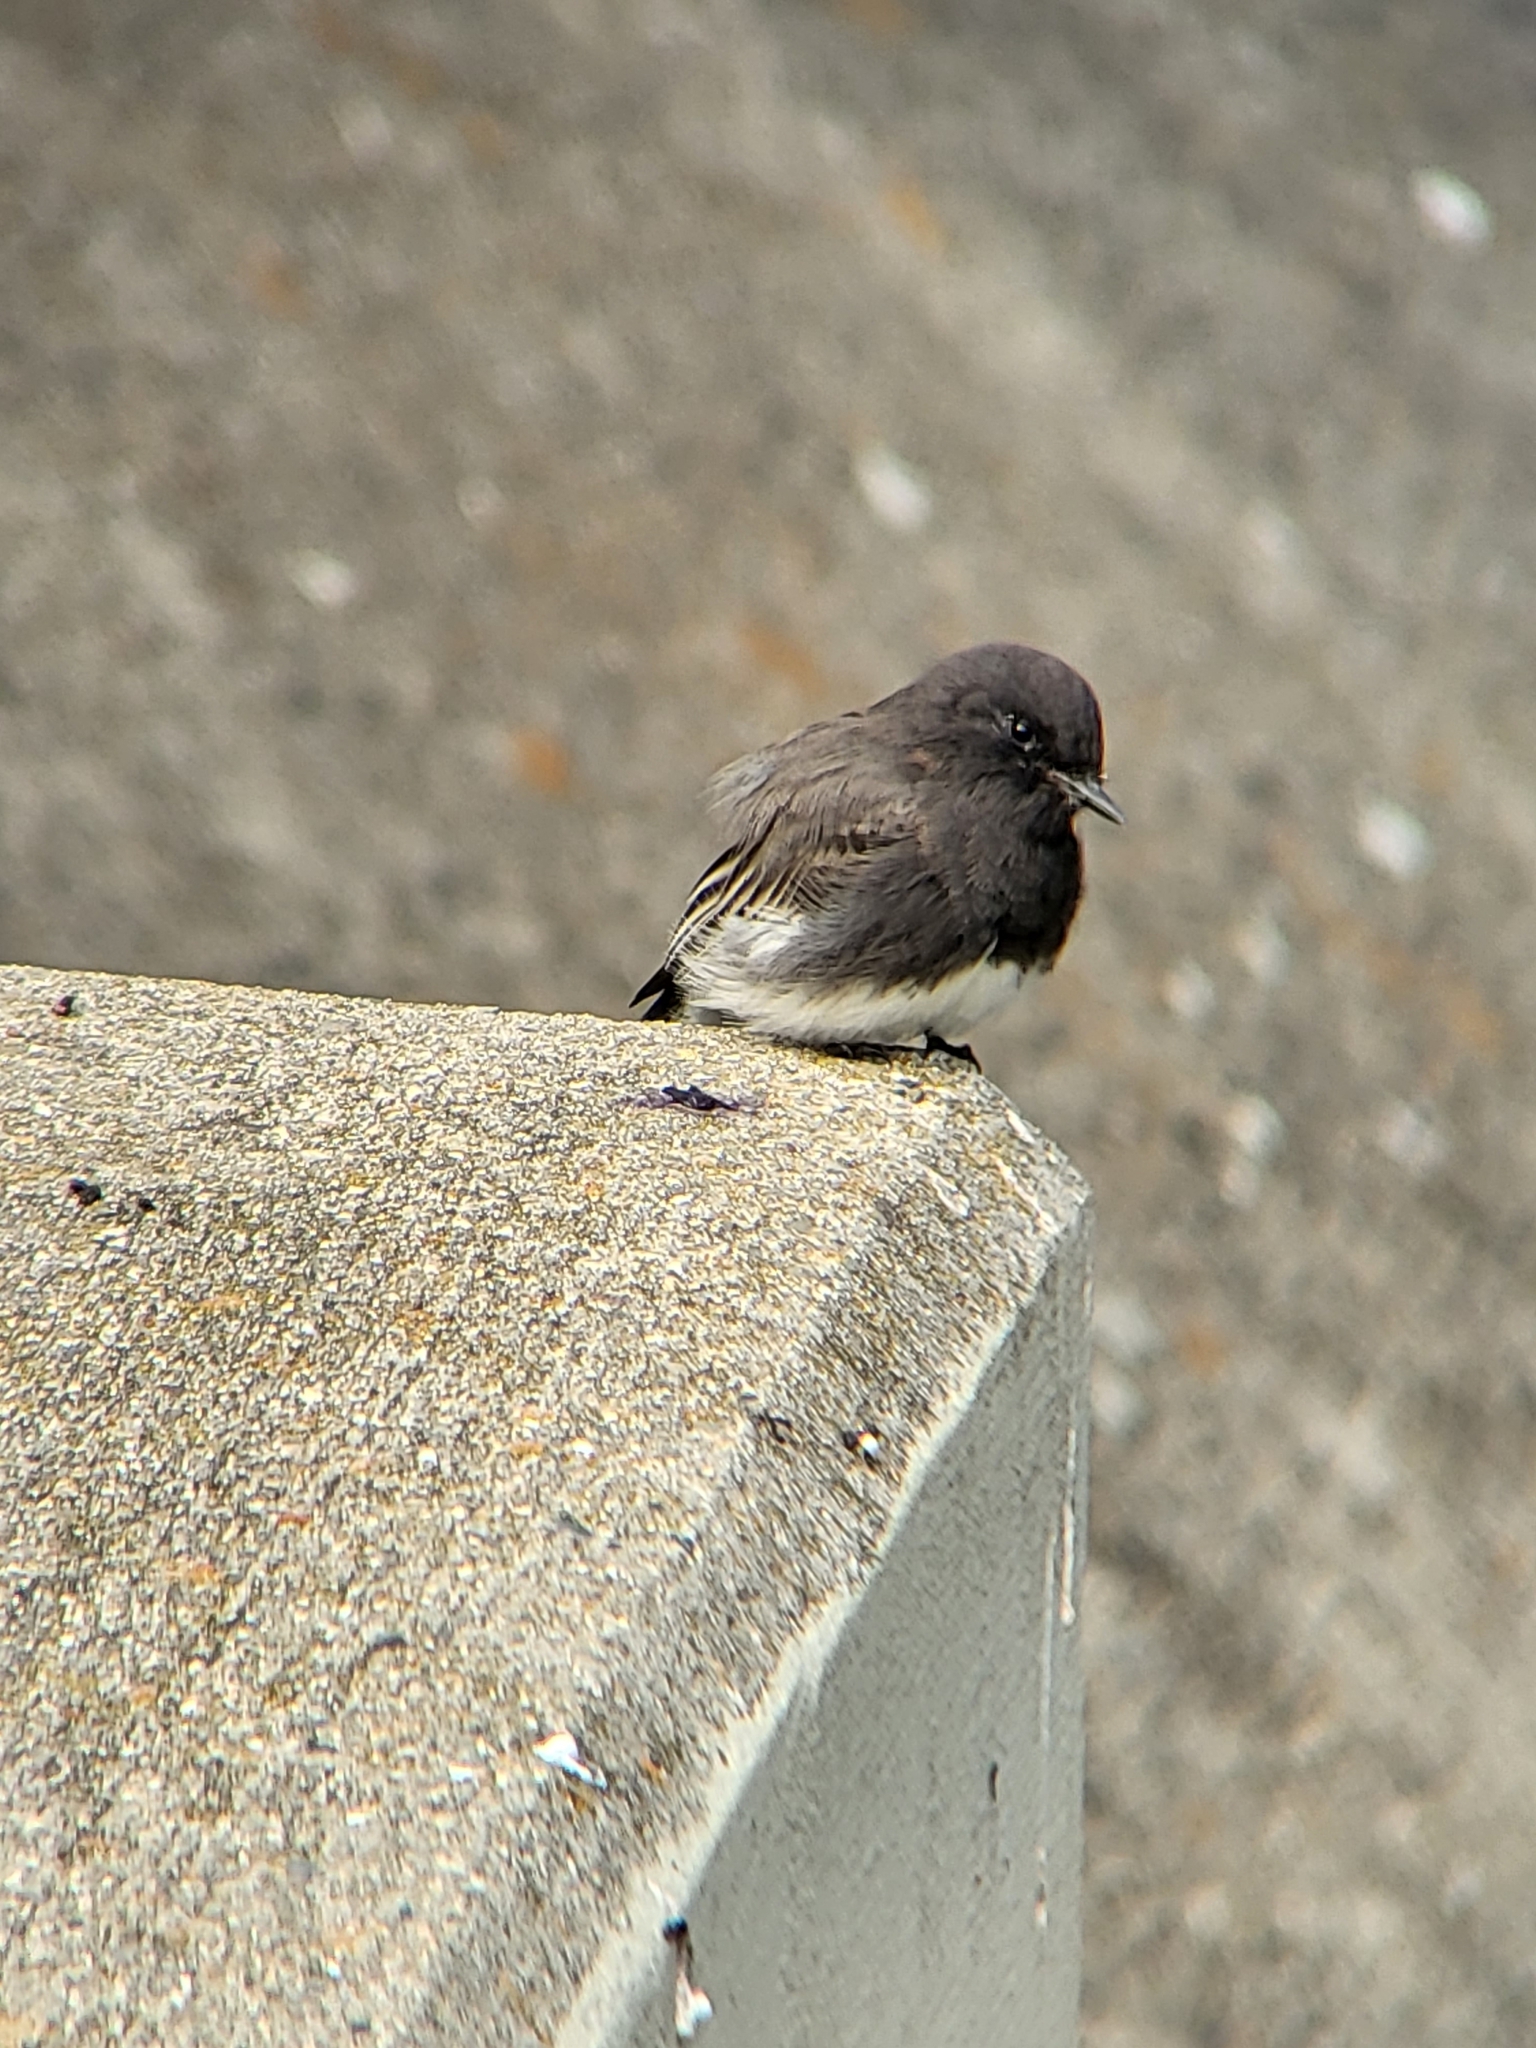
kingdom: Animalia
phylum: Chordata
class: Aves
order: Passeriformes
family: Tyrannidae
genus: Sayornis
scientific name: Sayornis nigricans
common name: Black phoebe
